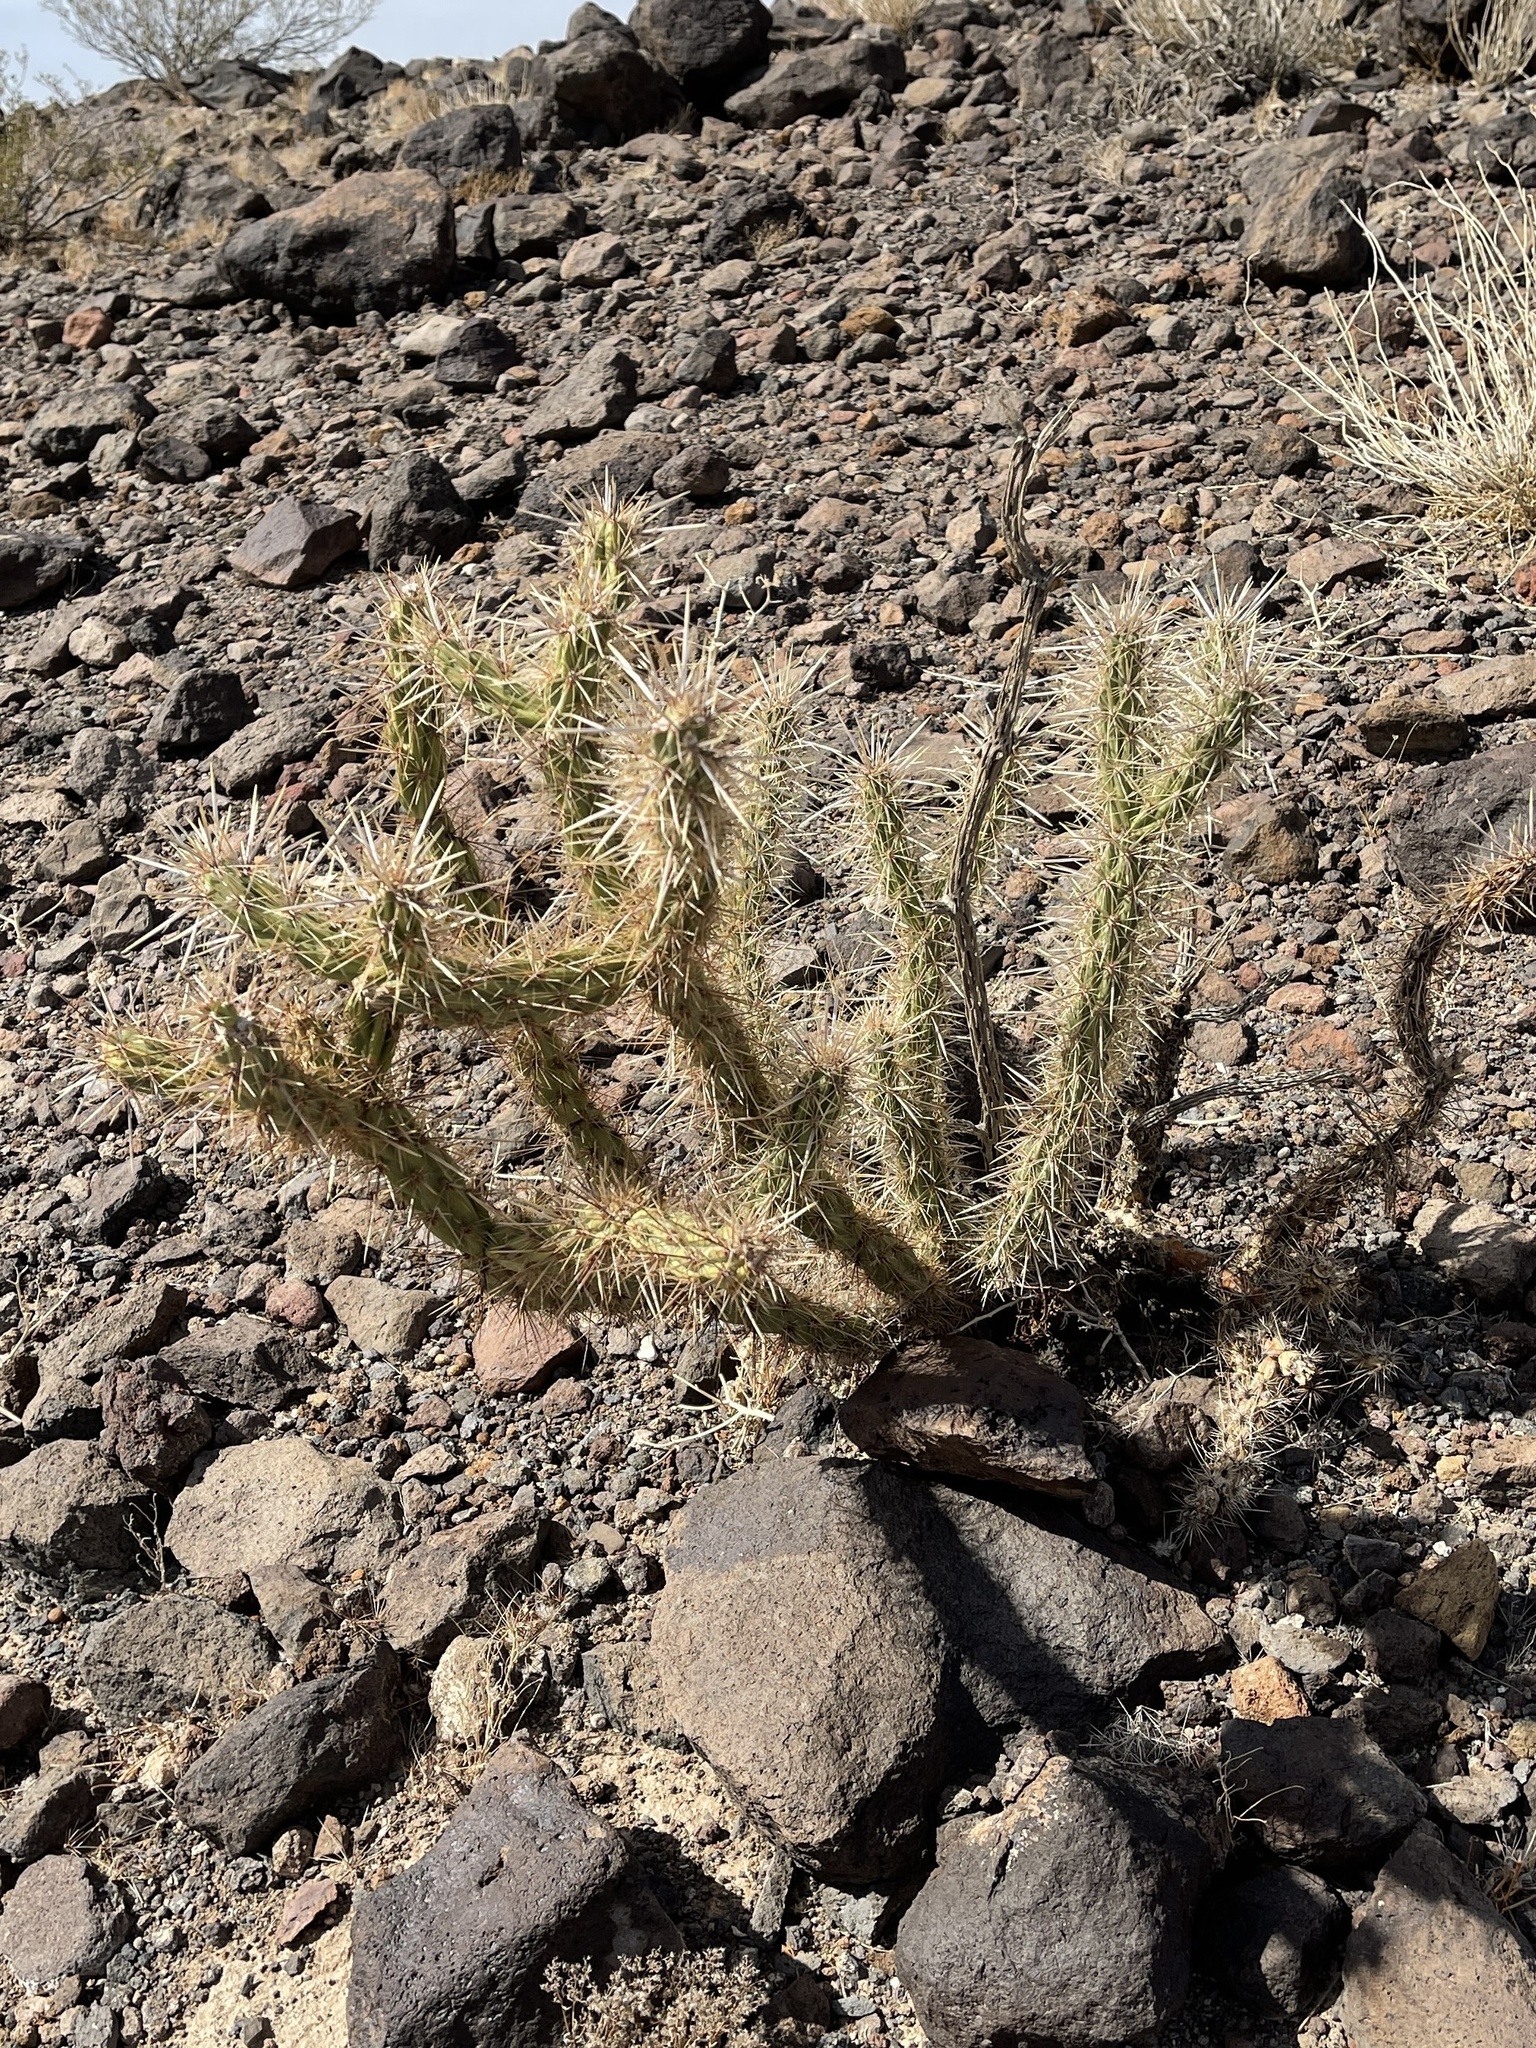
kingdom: Plantae
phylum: Tracheophyta
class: Magnoliopsida
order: Caryophyllales
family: Cactaceae
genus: Cylindropuntia
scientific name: Cylindropuntia acanthocarpa
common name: Buckhorn cholla
